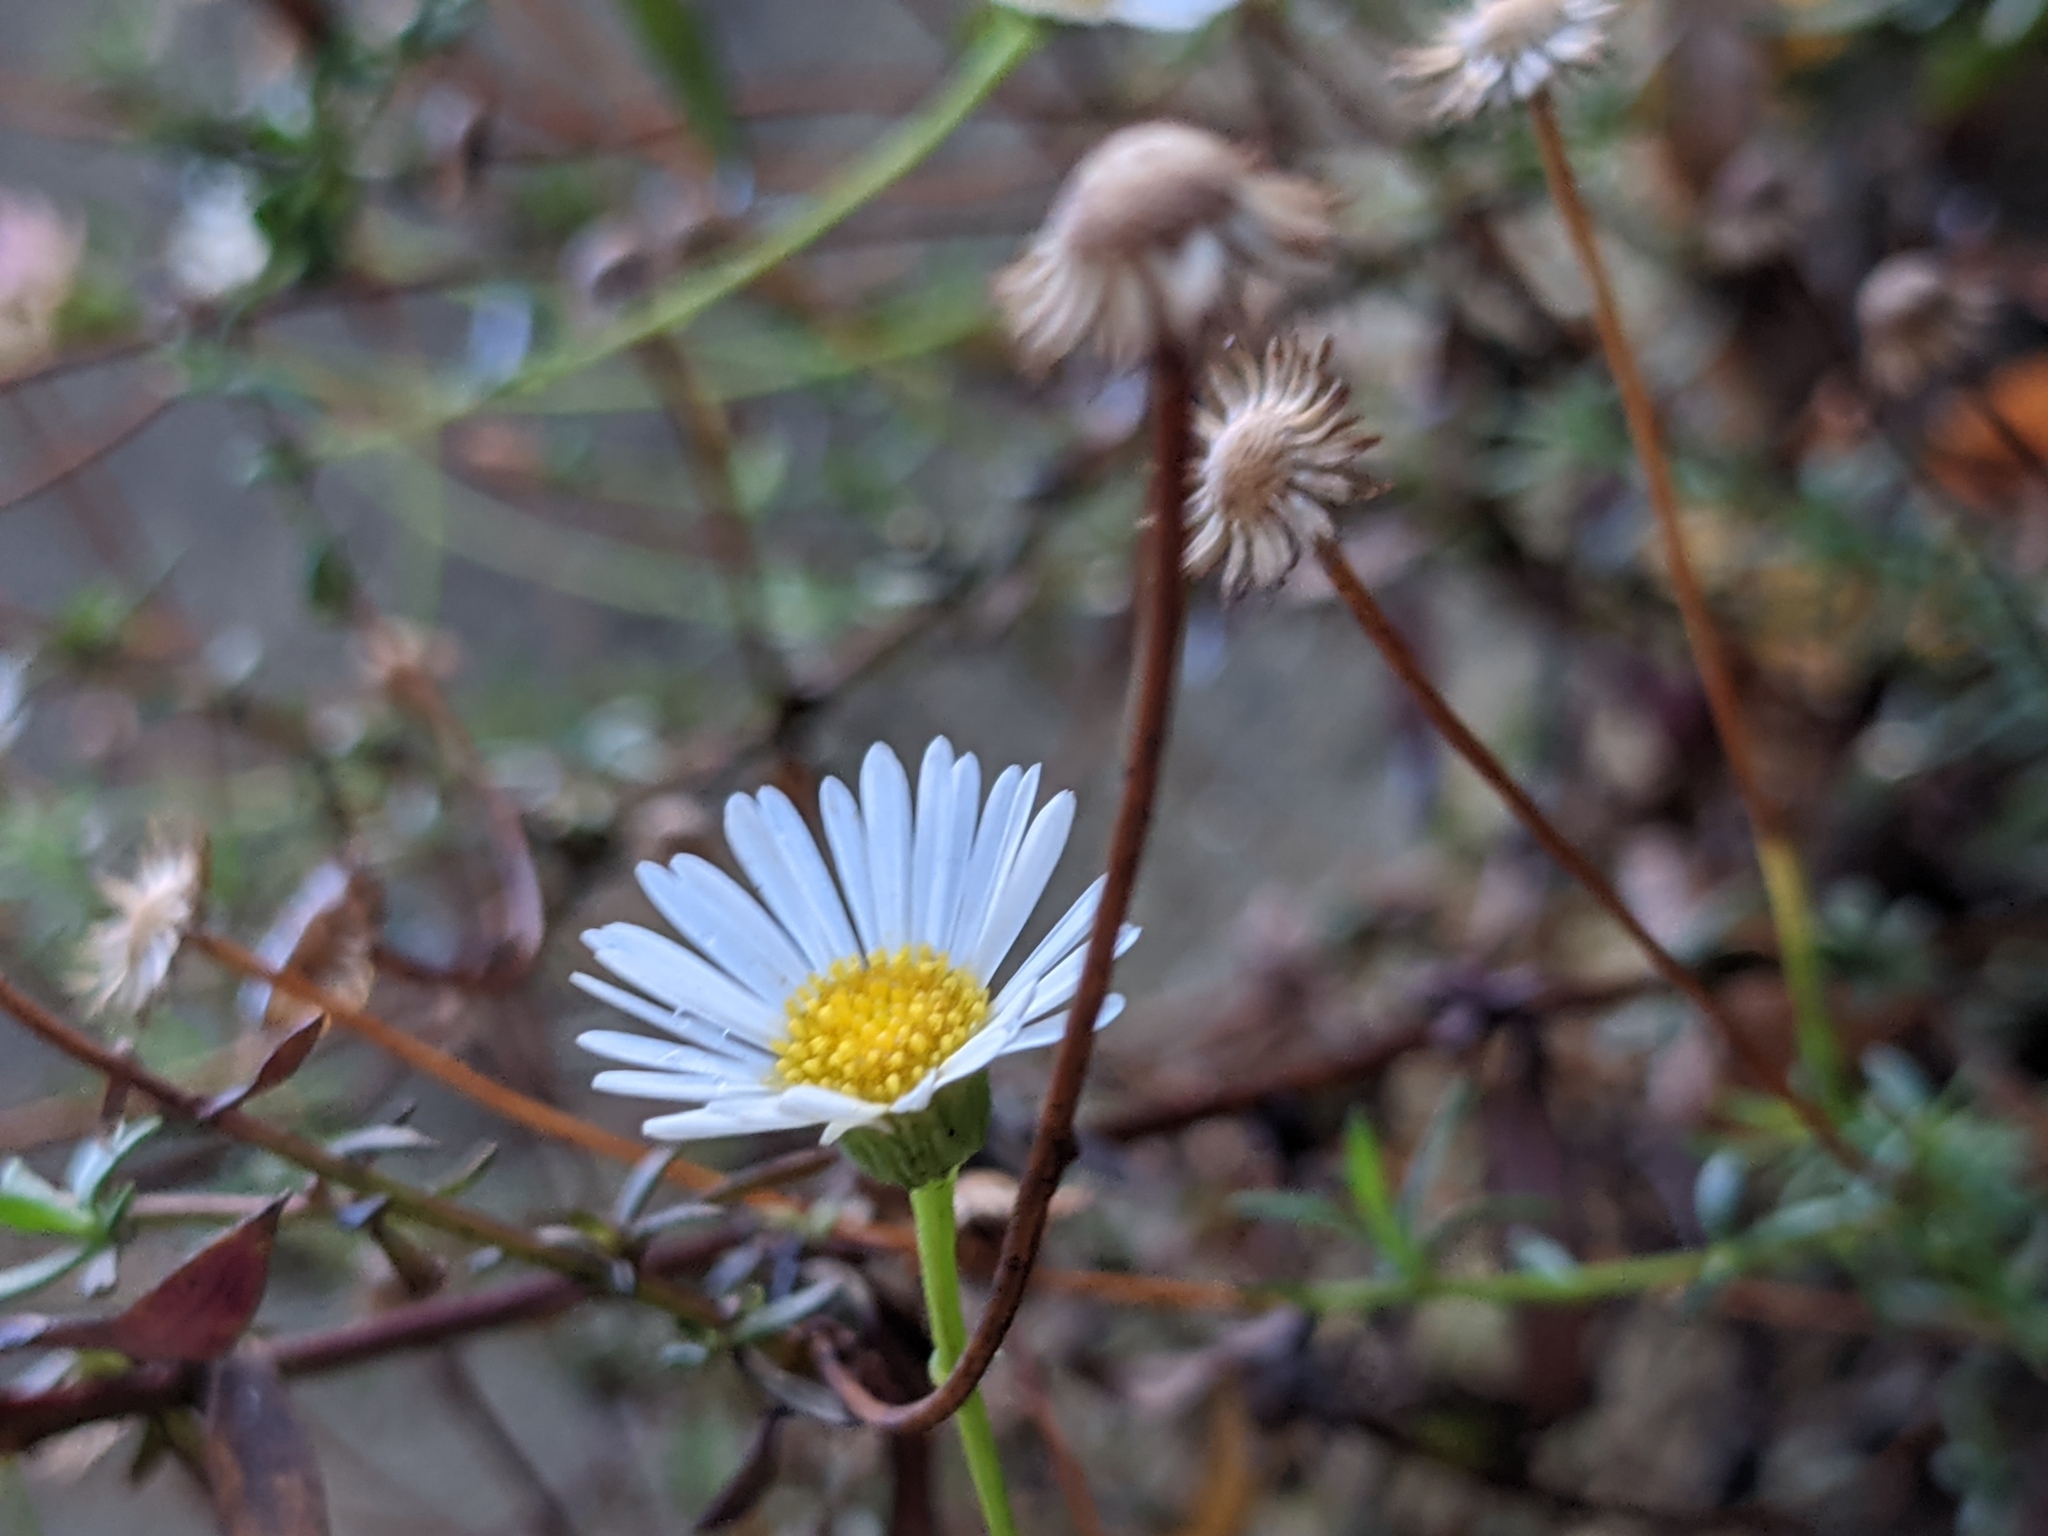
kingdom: Plantae
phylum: Tracheophyta
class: Magnoliopsida
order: Asterales
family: Asteraceae
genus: Erigeron
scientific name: Erigeron karvinskianus
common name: Mexican fleabane
